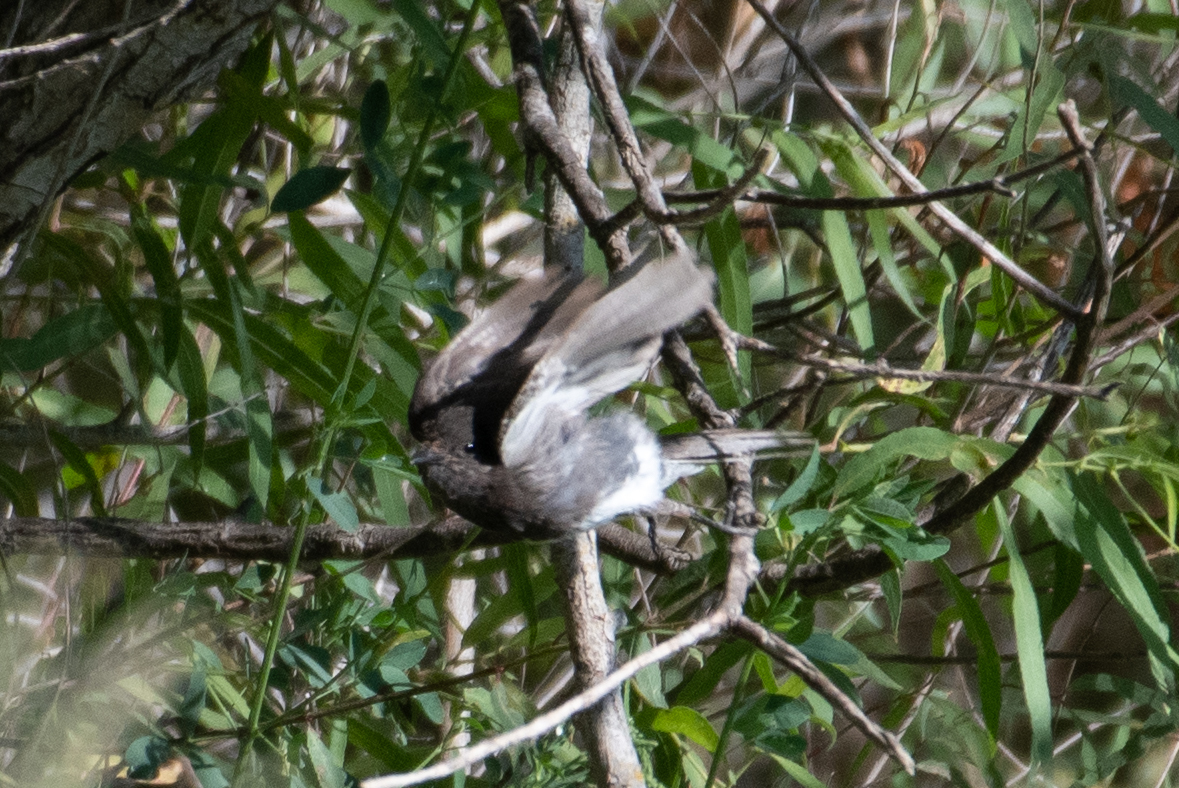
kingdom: Animalia
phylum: Chordata
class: Aves
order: Passeriformes
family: Tyrannidae
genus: Sayornis
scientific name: Sayornis nigricans
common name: Black phoebe
